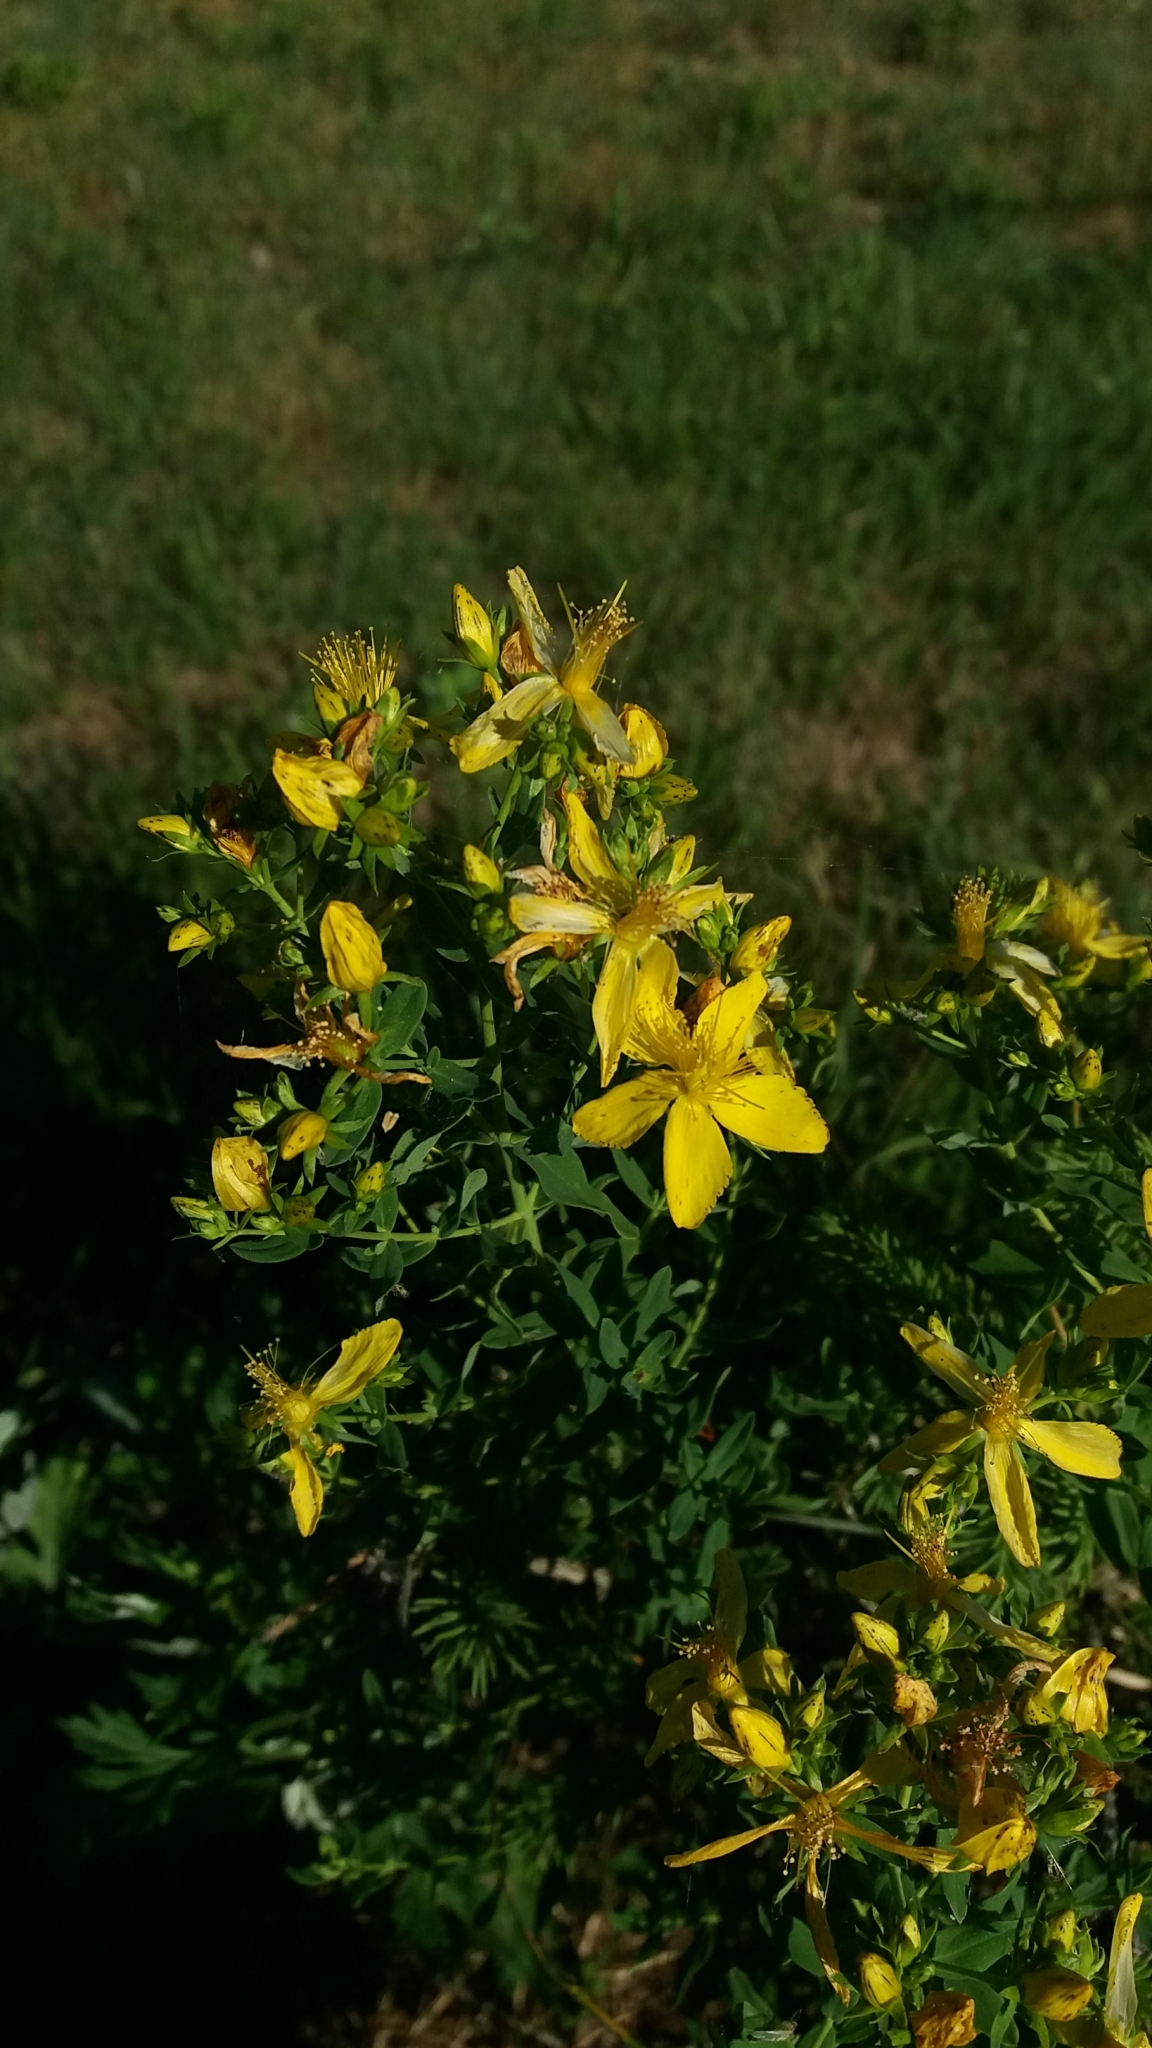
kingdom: Plantae
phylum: Tracheophyta
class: Magnoliopsida
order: Malpighiales
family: Hypericaceae
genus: Hypericum
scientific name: Hypericum perforatum
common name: Common st. johnswort
